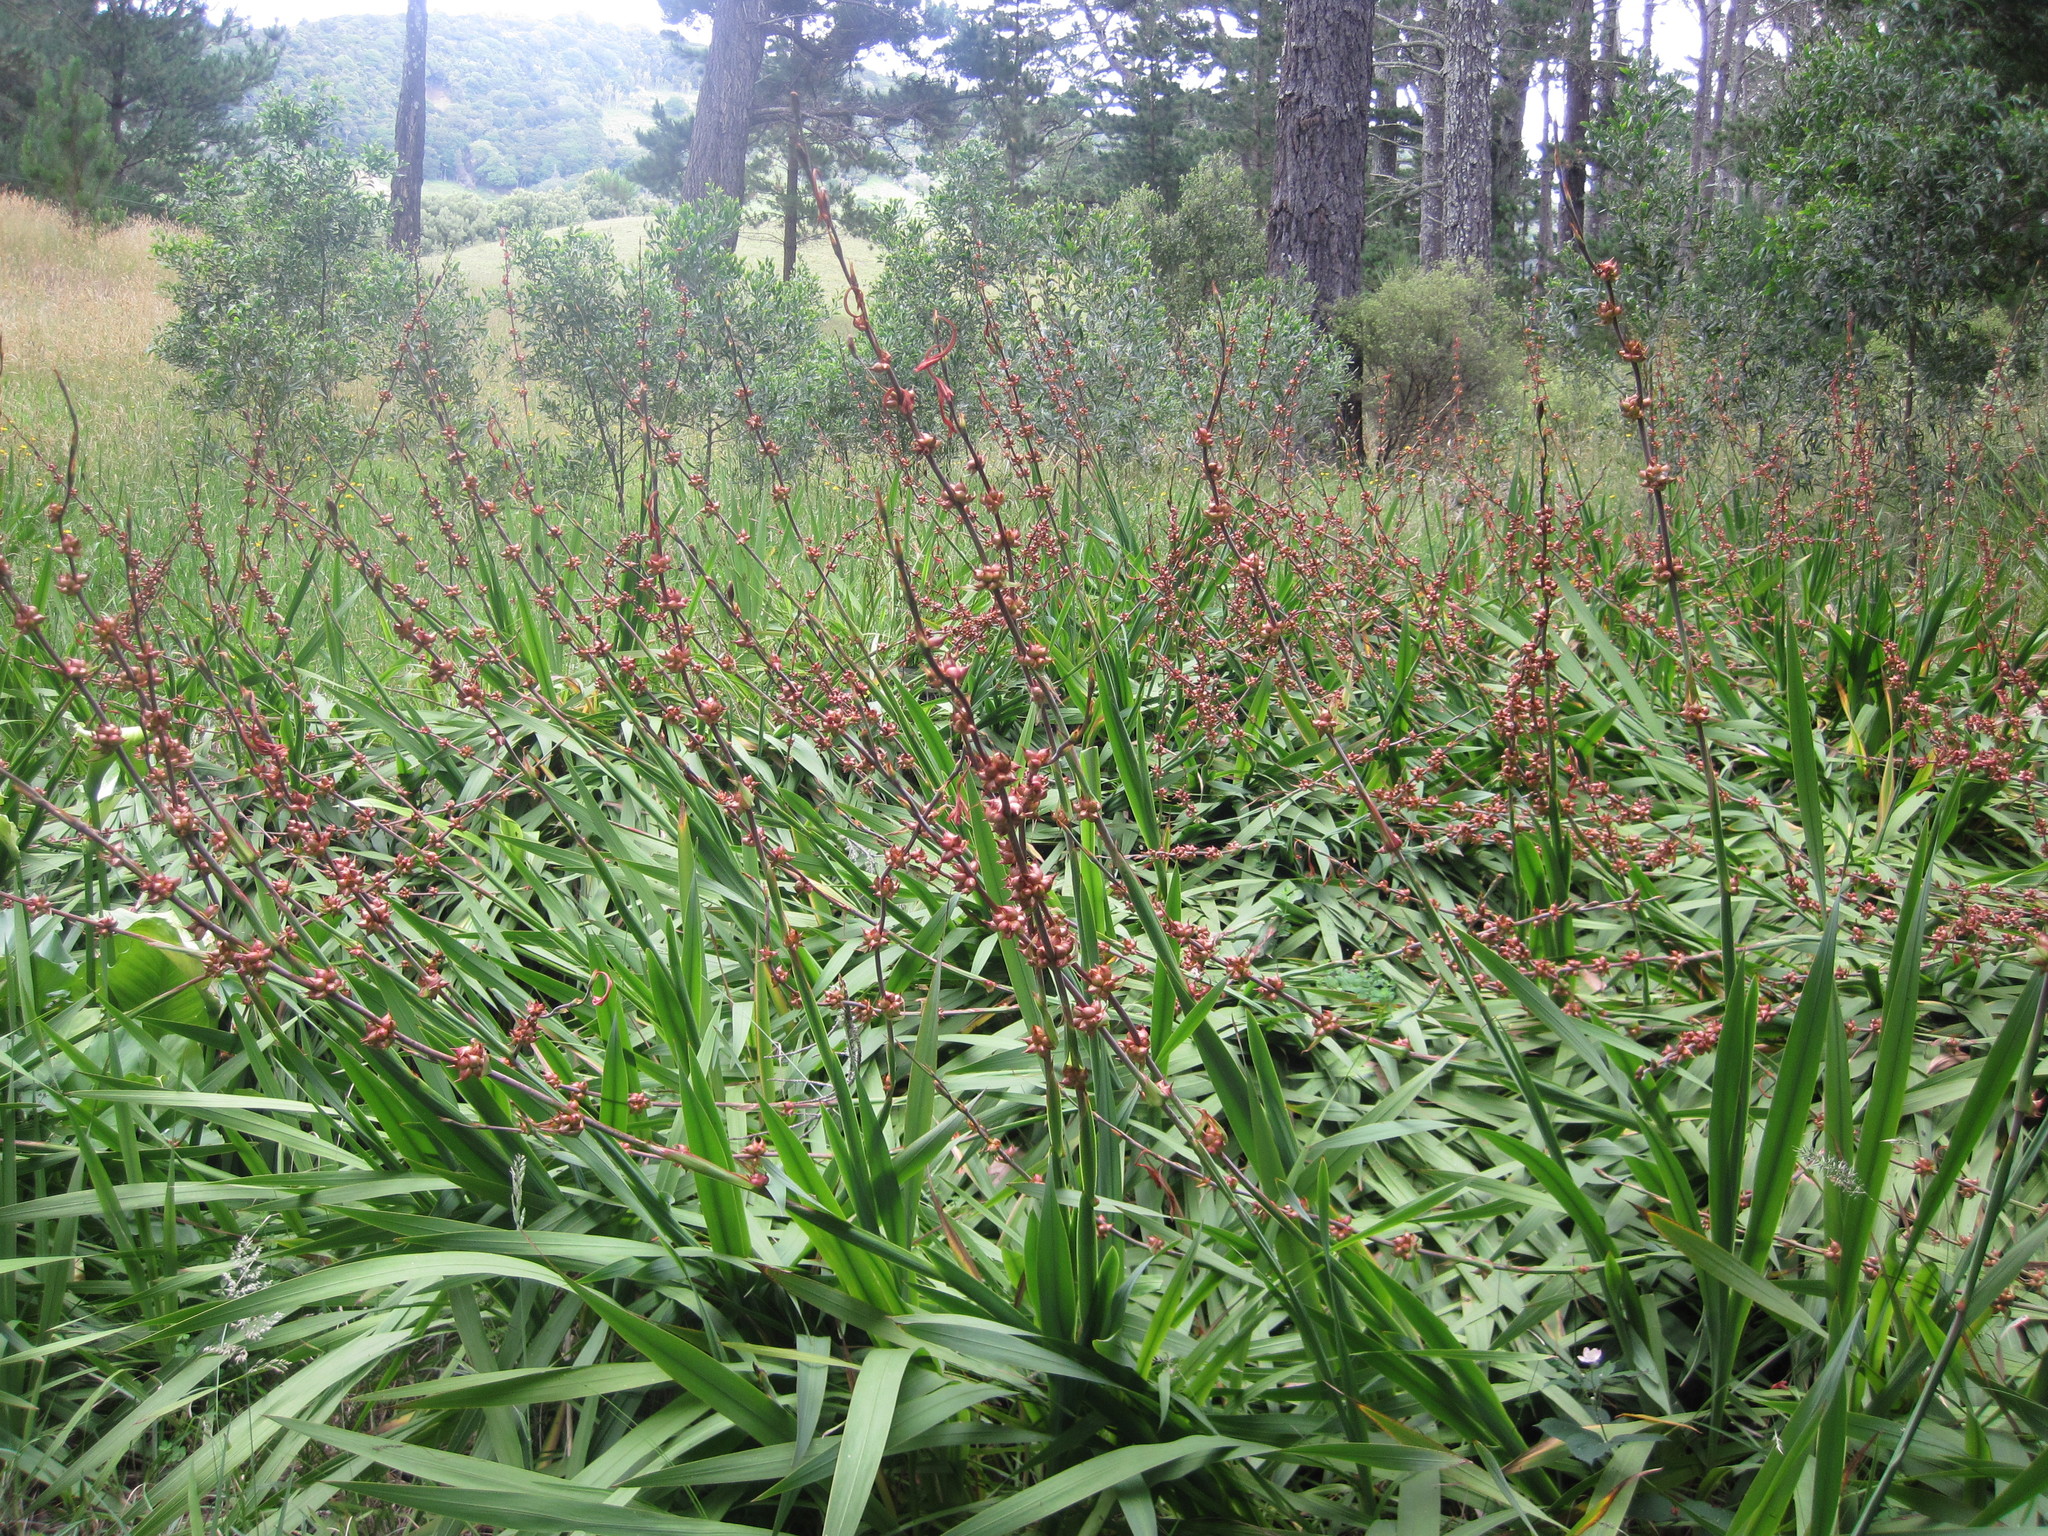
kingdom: Plantae
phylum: Tracheophyta
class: Liliopsida
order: Asparagales
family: Iridaceae
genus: Watsonia
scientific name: Watsonia meriana
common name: Bulbil bugle-lily
